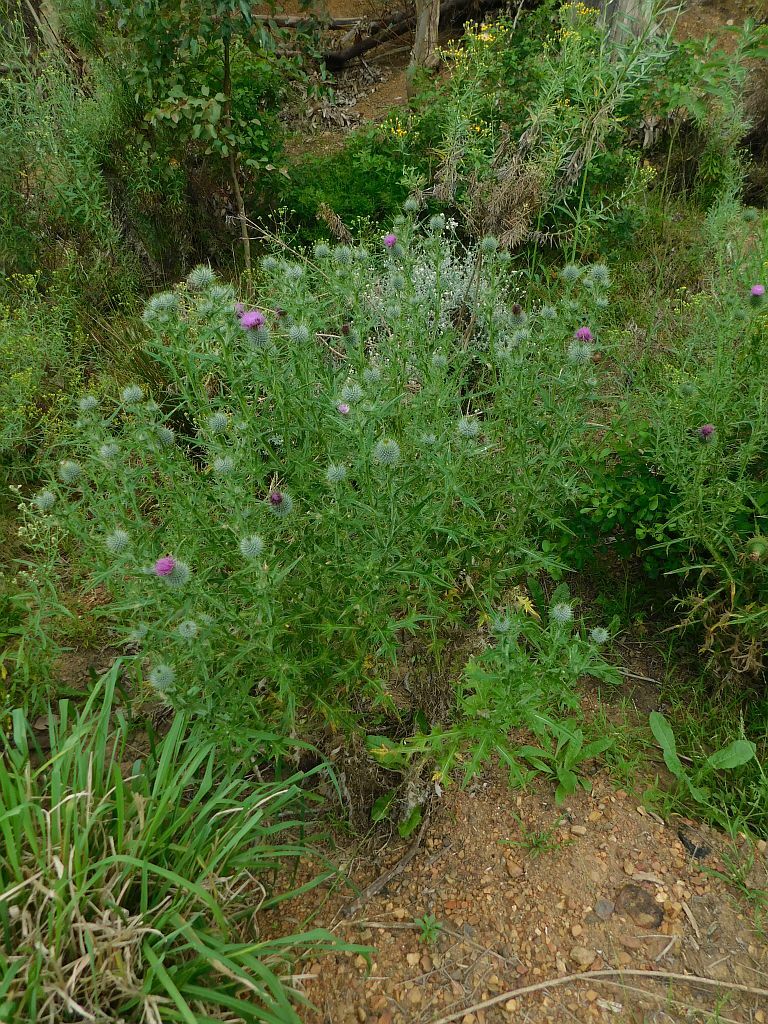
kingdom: Plantae
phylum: Tracheophyta
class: Magnoliopsida
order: Asterales
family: Asteraceae
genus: Cirsium
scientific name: Cirsium vulgare
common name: Bull thistle
